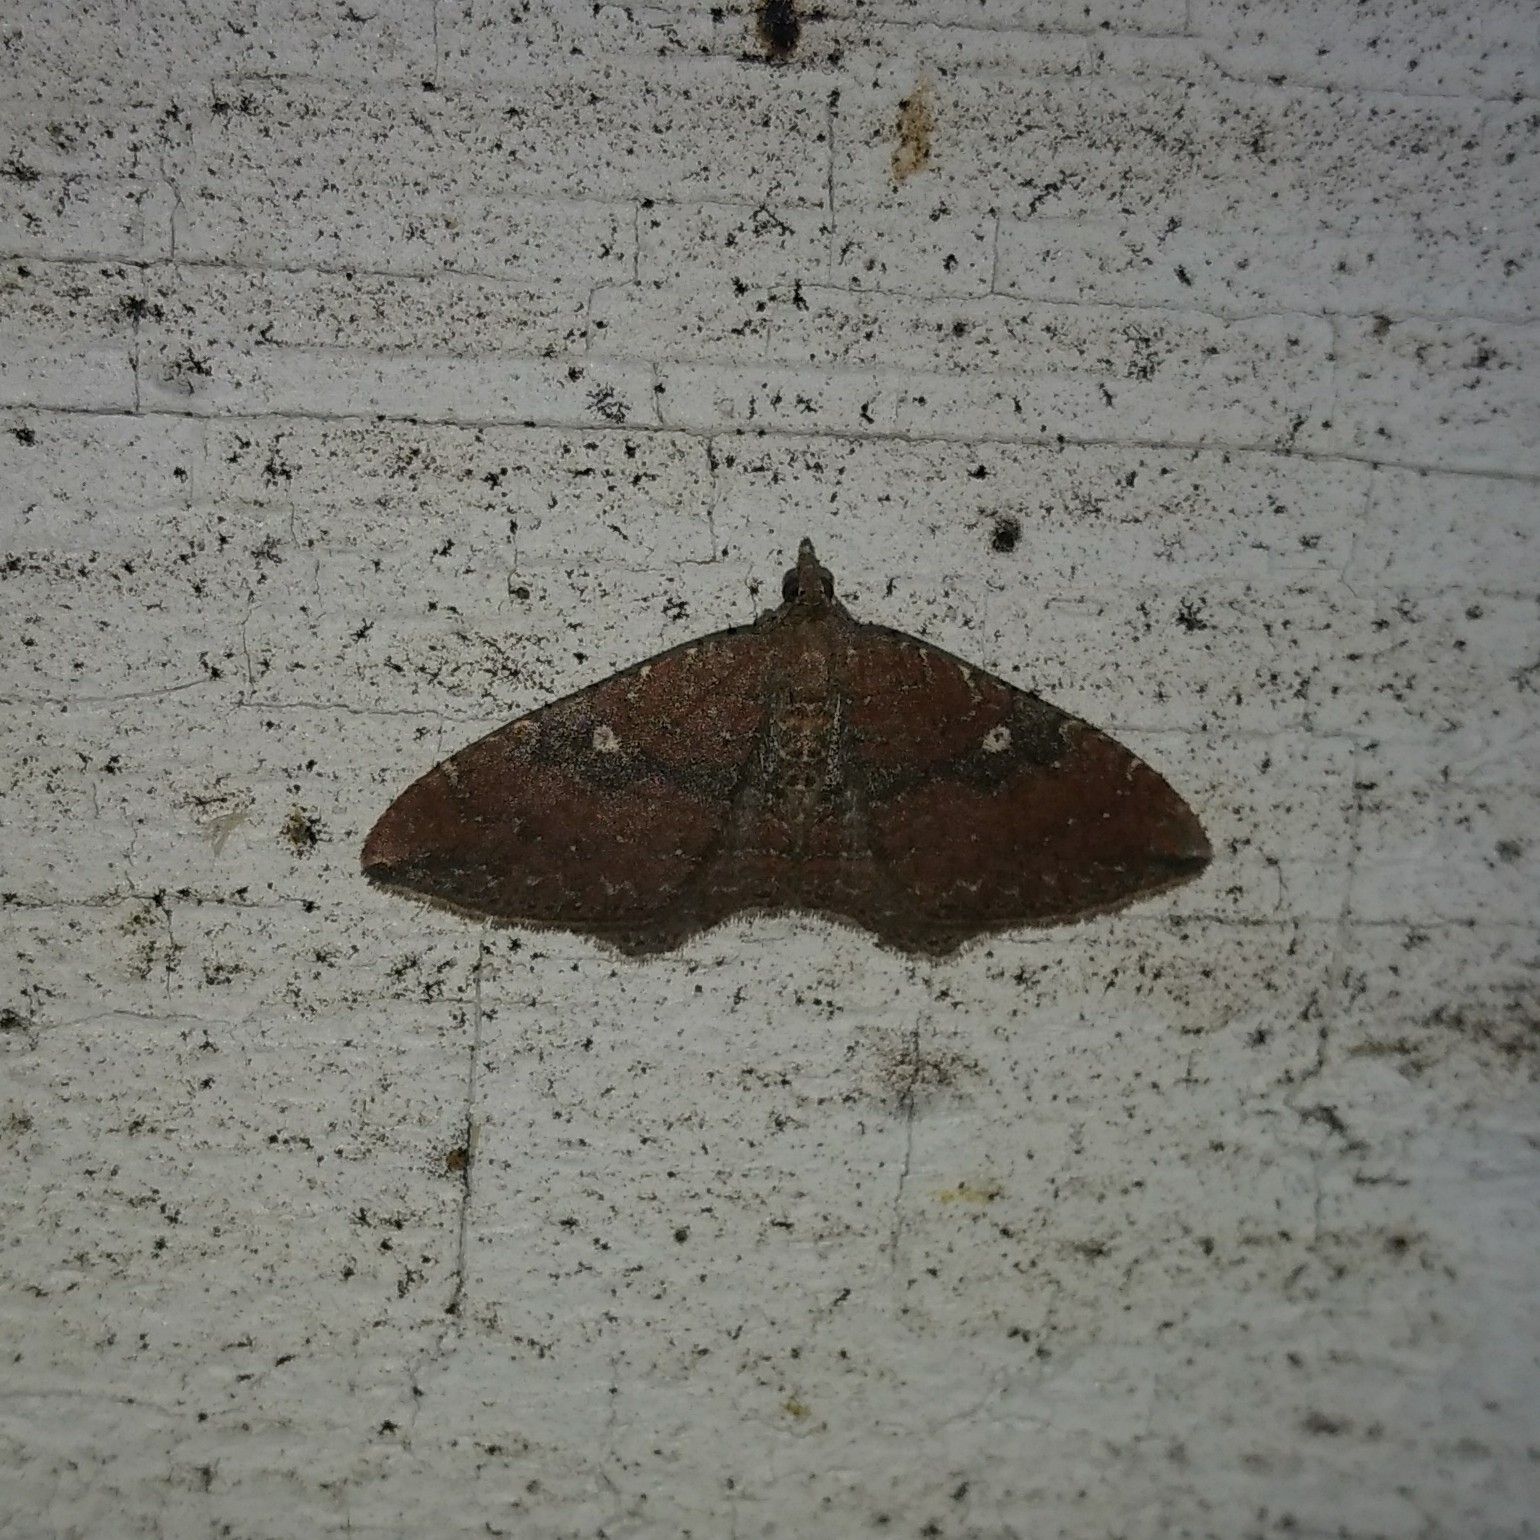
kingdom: Animalia
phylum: Arthropoda
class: Insecta
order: Lepidoptera
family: Geometridae
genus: Orthonama
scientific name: Orthonama obstipata
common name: The gem
